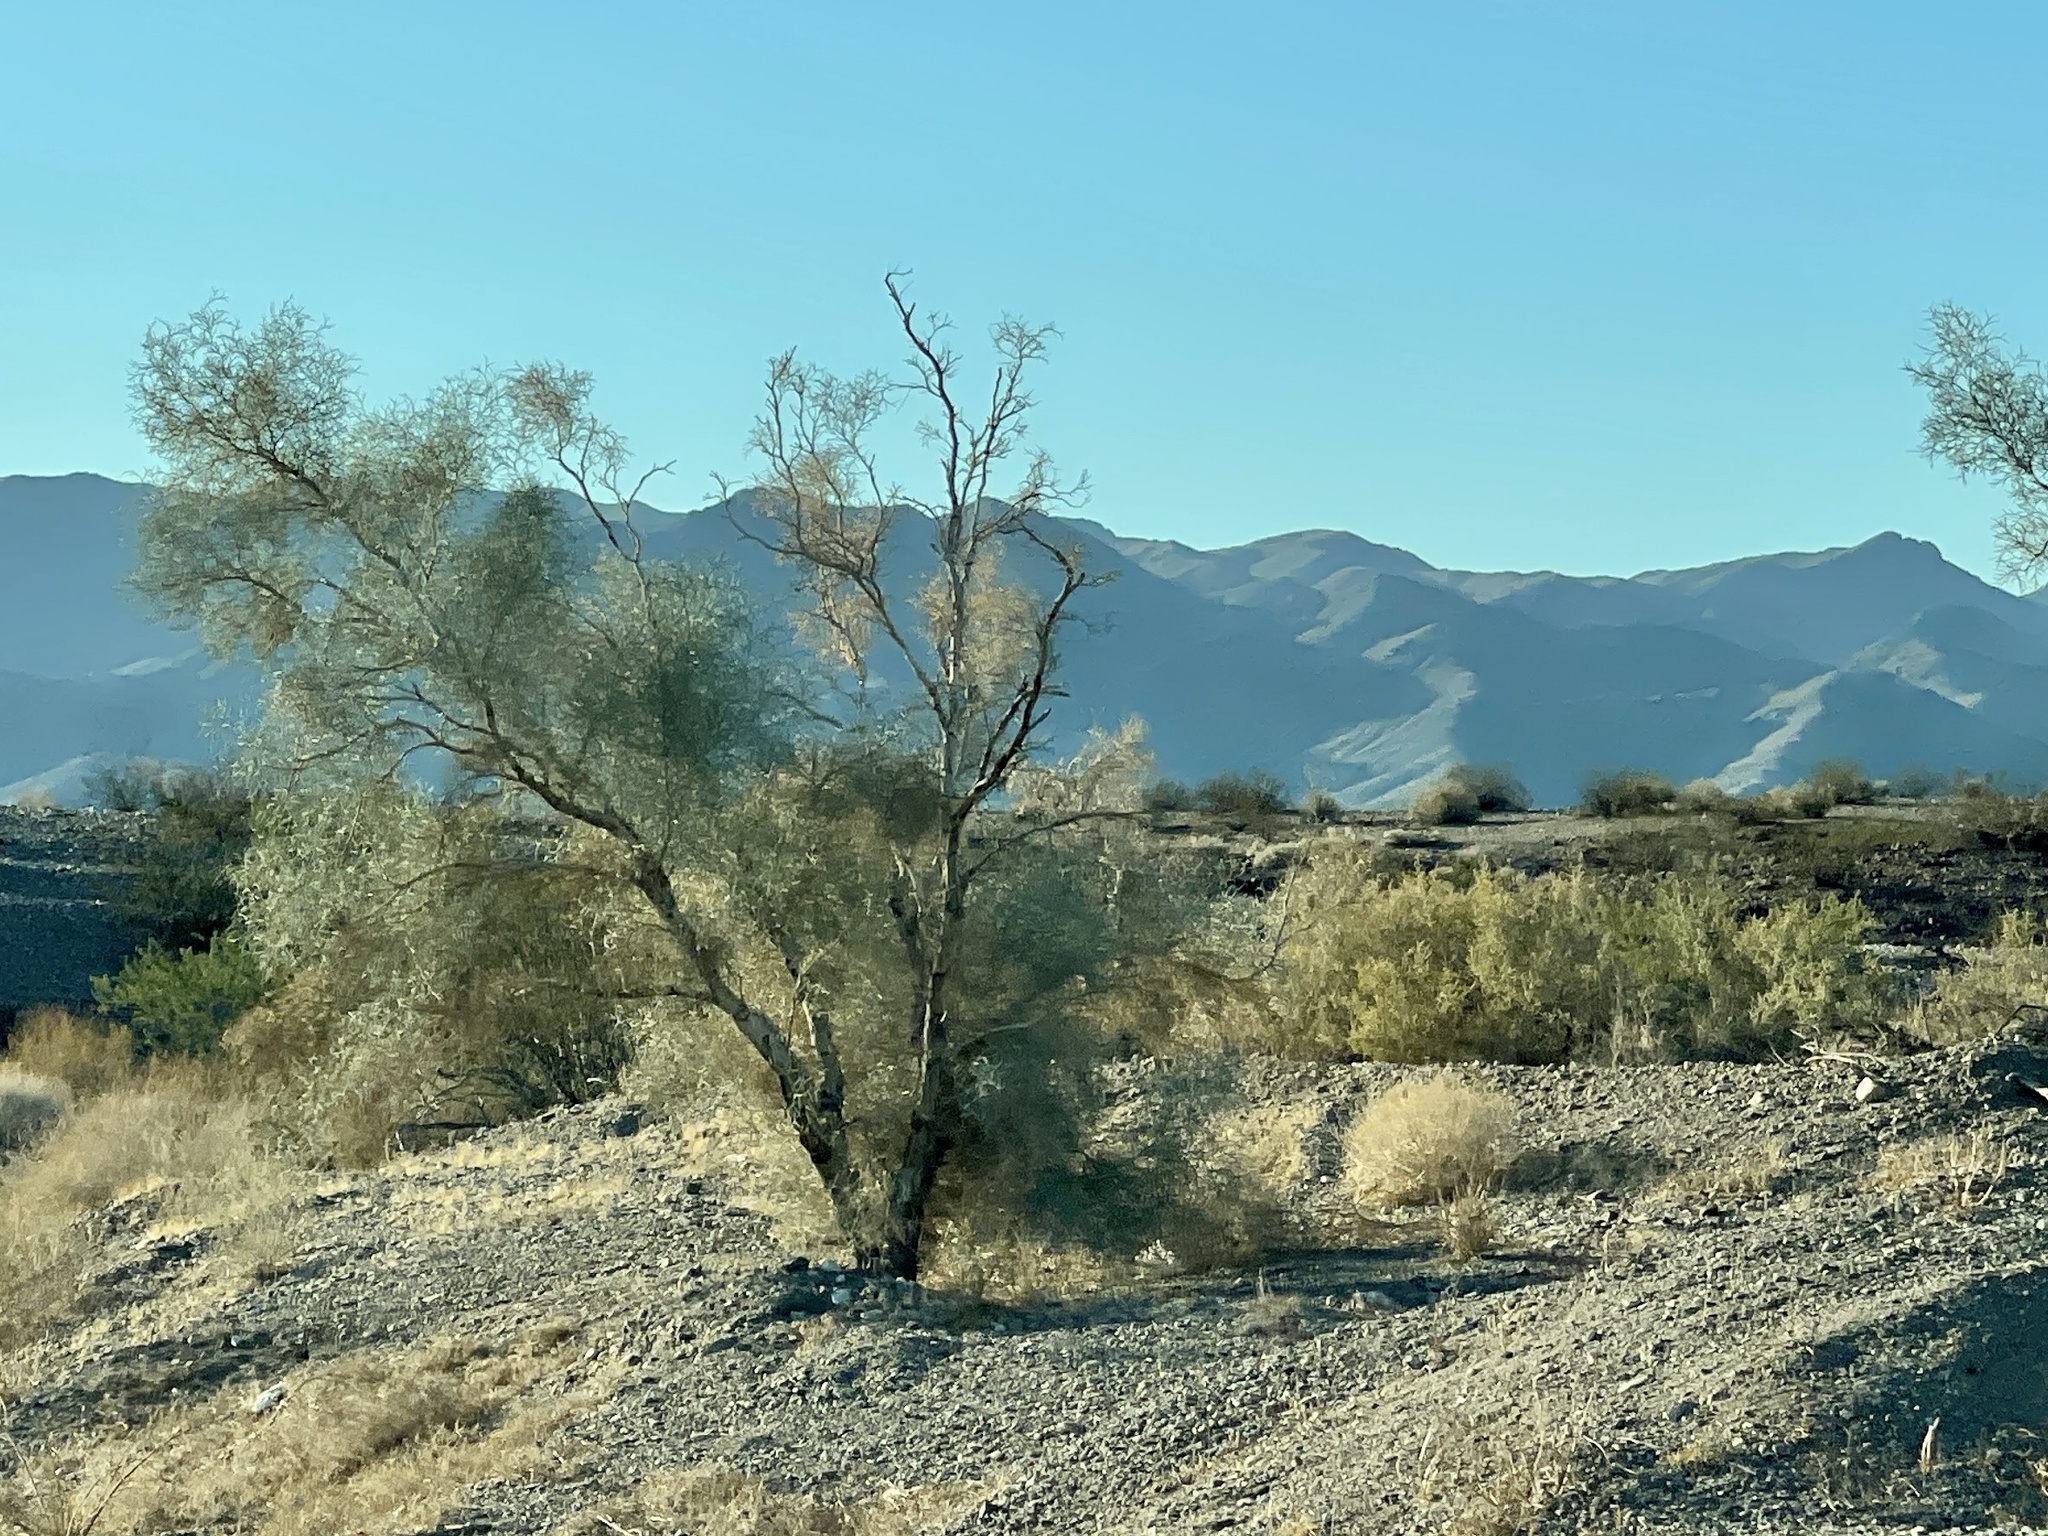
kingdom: Plantae
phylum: Tracheophyta
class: Magnoliopsida
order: Fabales
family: Fabaceae
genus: Psorothamnus
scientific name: Psorothamnus spinosus
